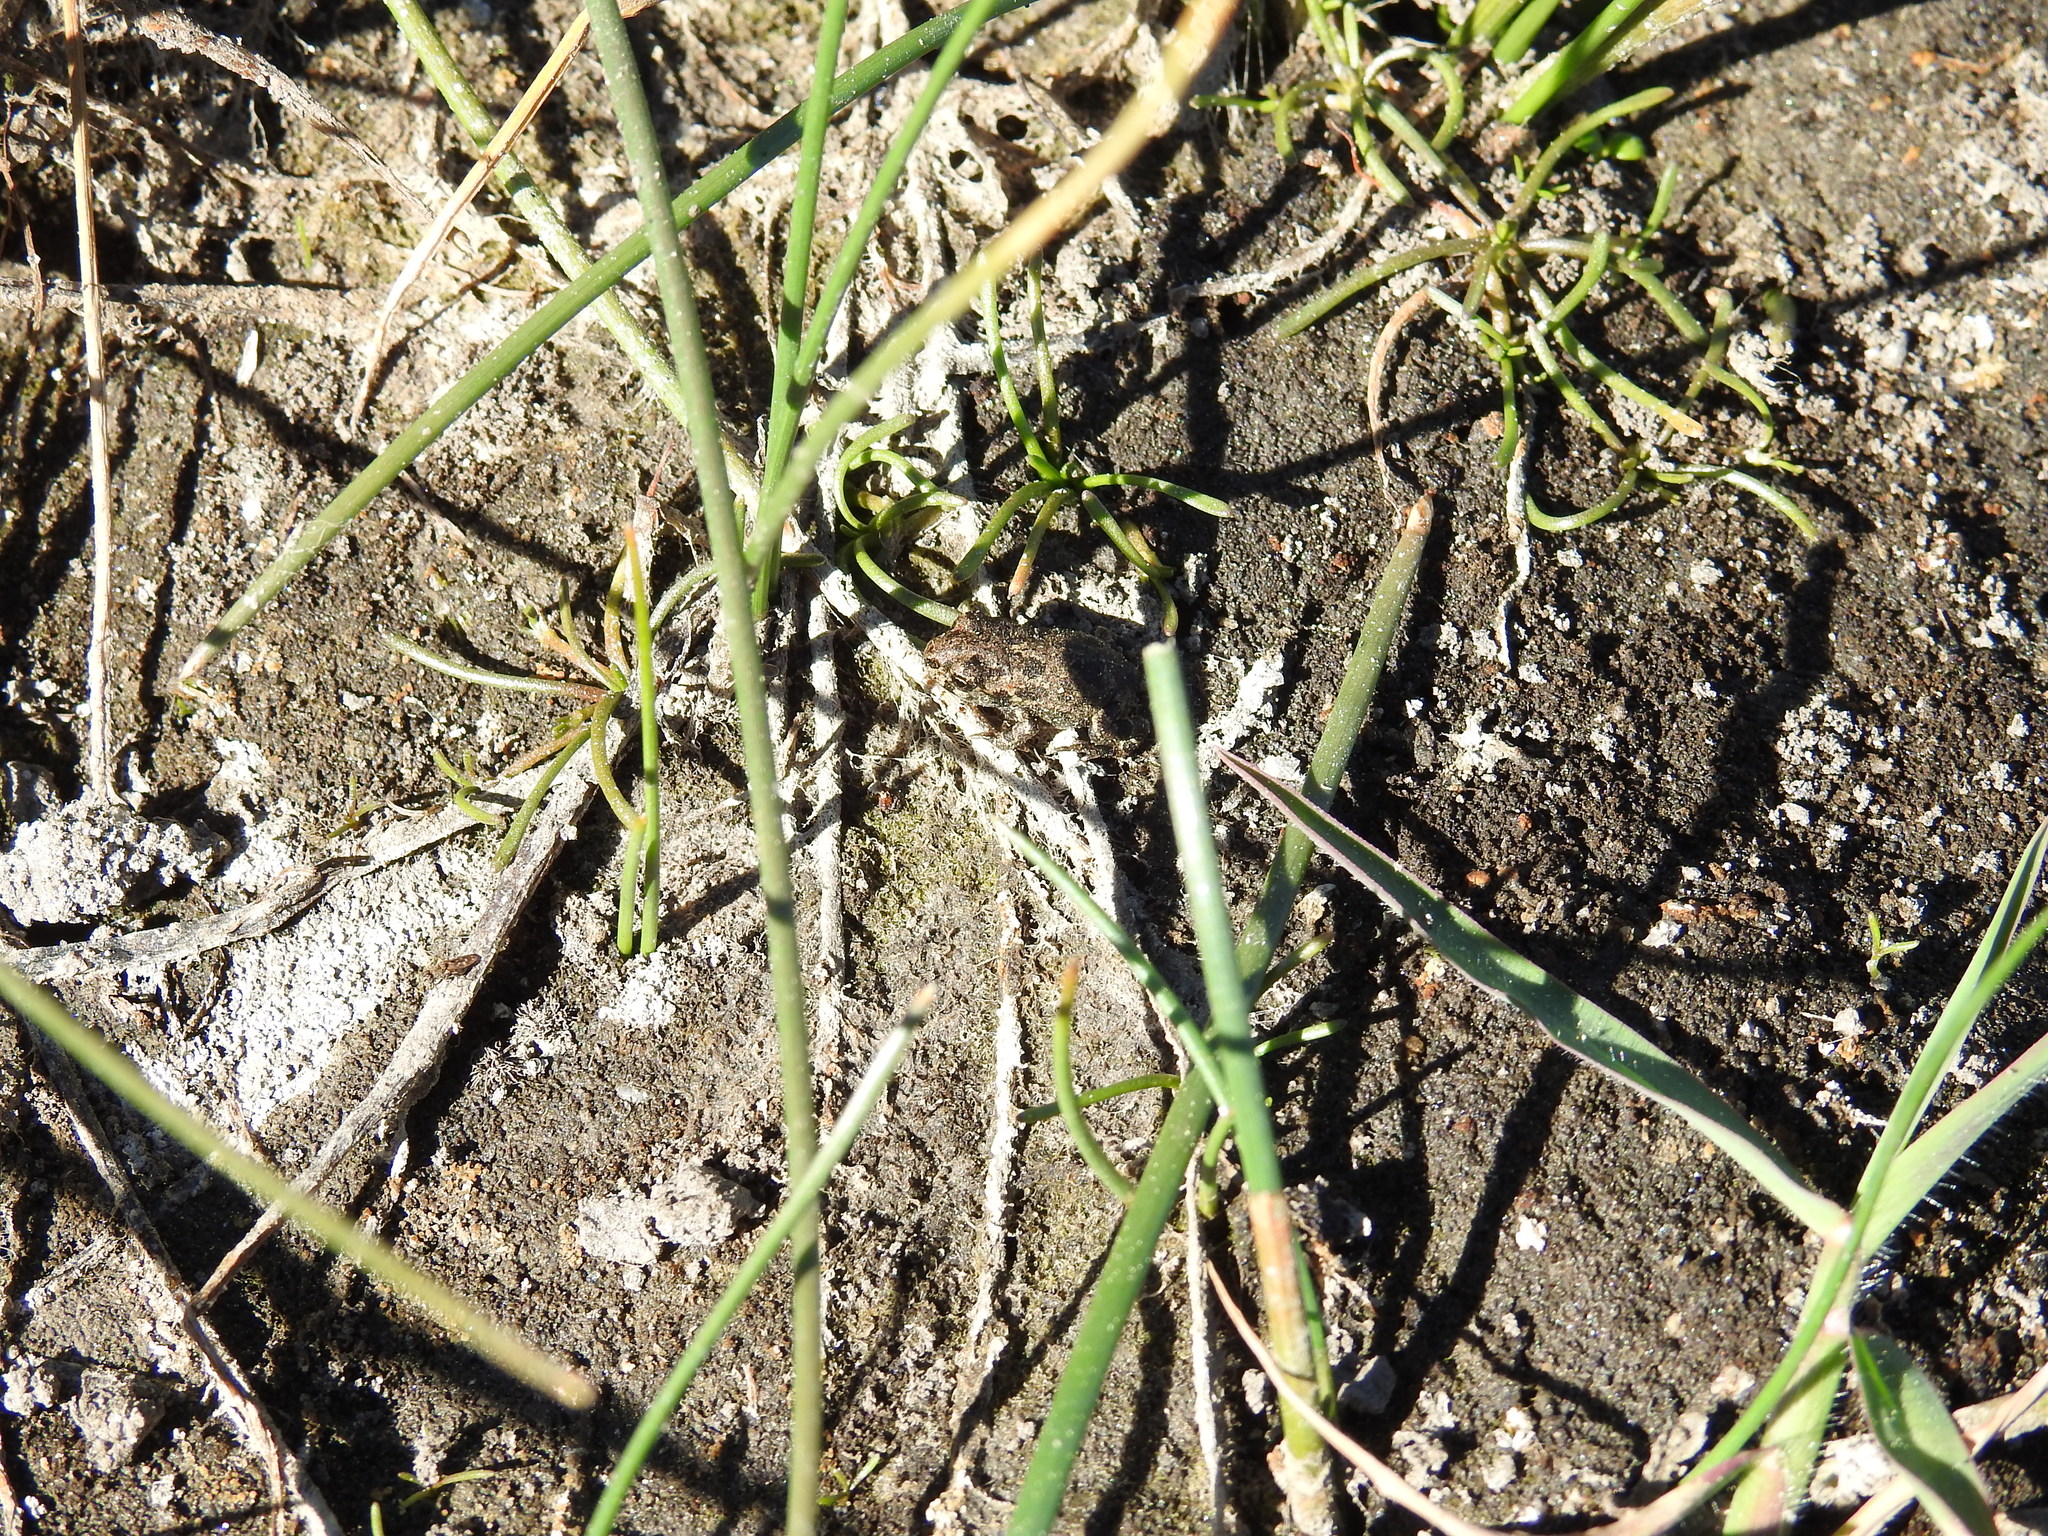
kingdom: Animalia
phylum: Chordata
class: Amphibia
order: Anura
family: Bufonidae
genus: Anaxyrus
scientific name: Anaxyrus
